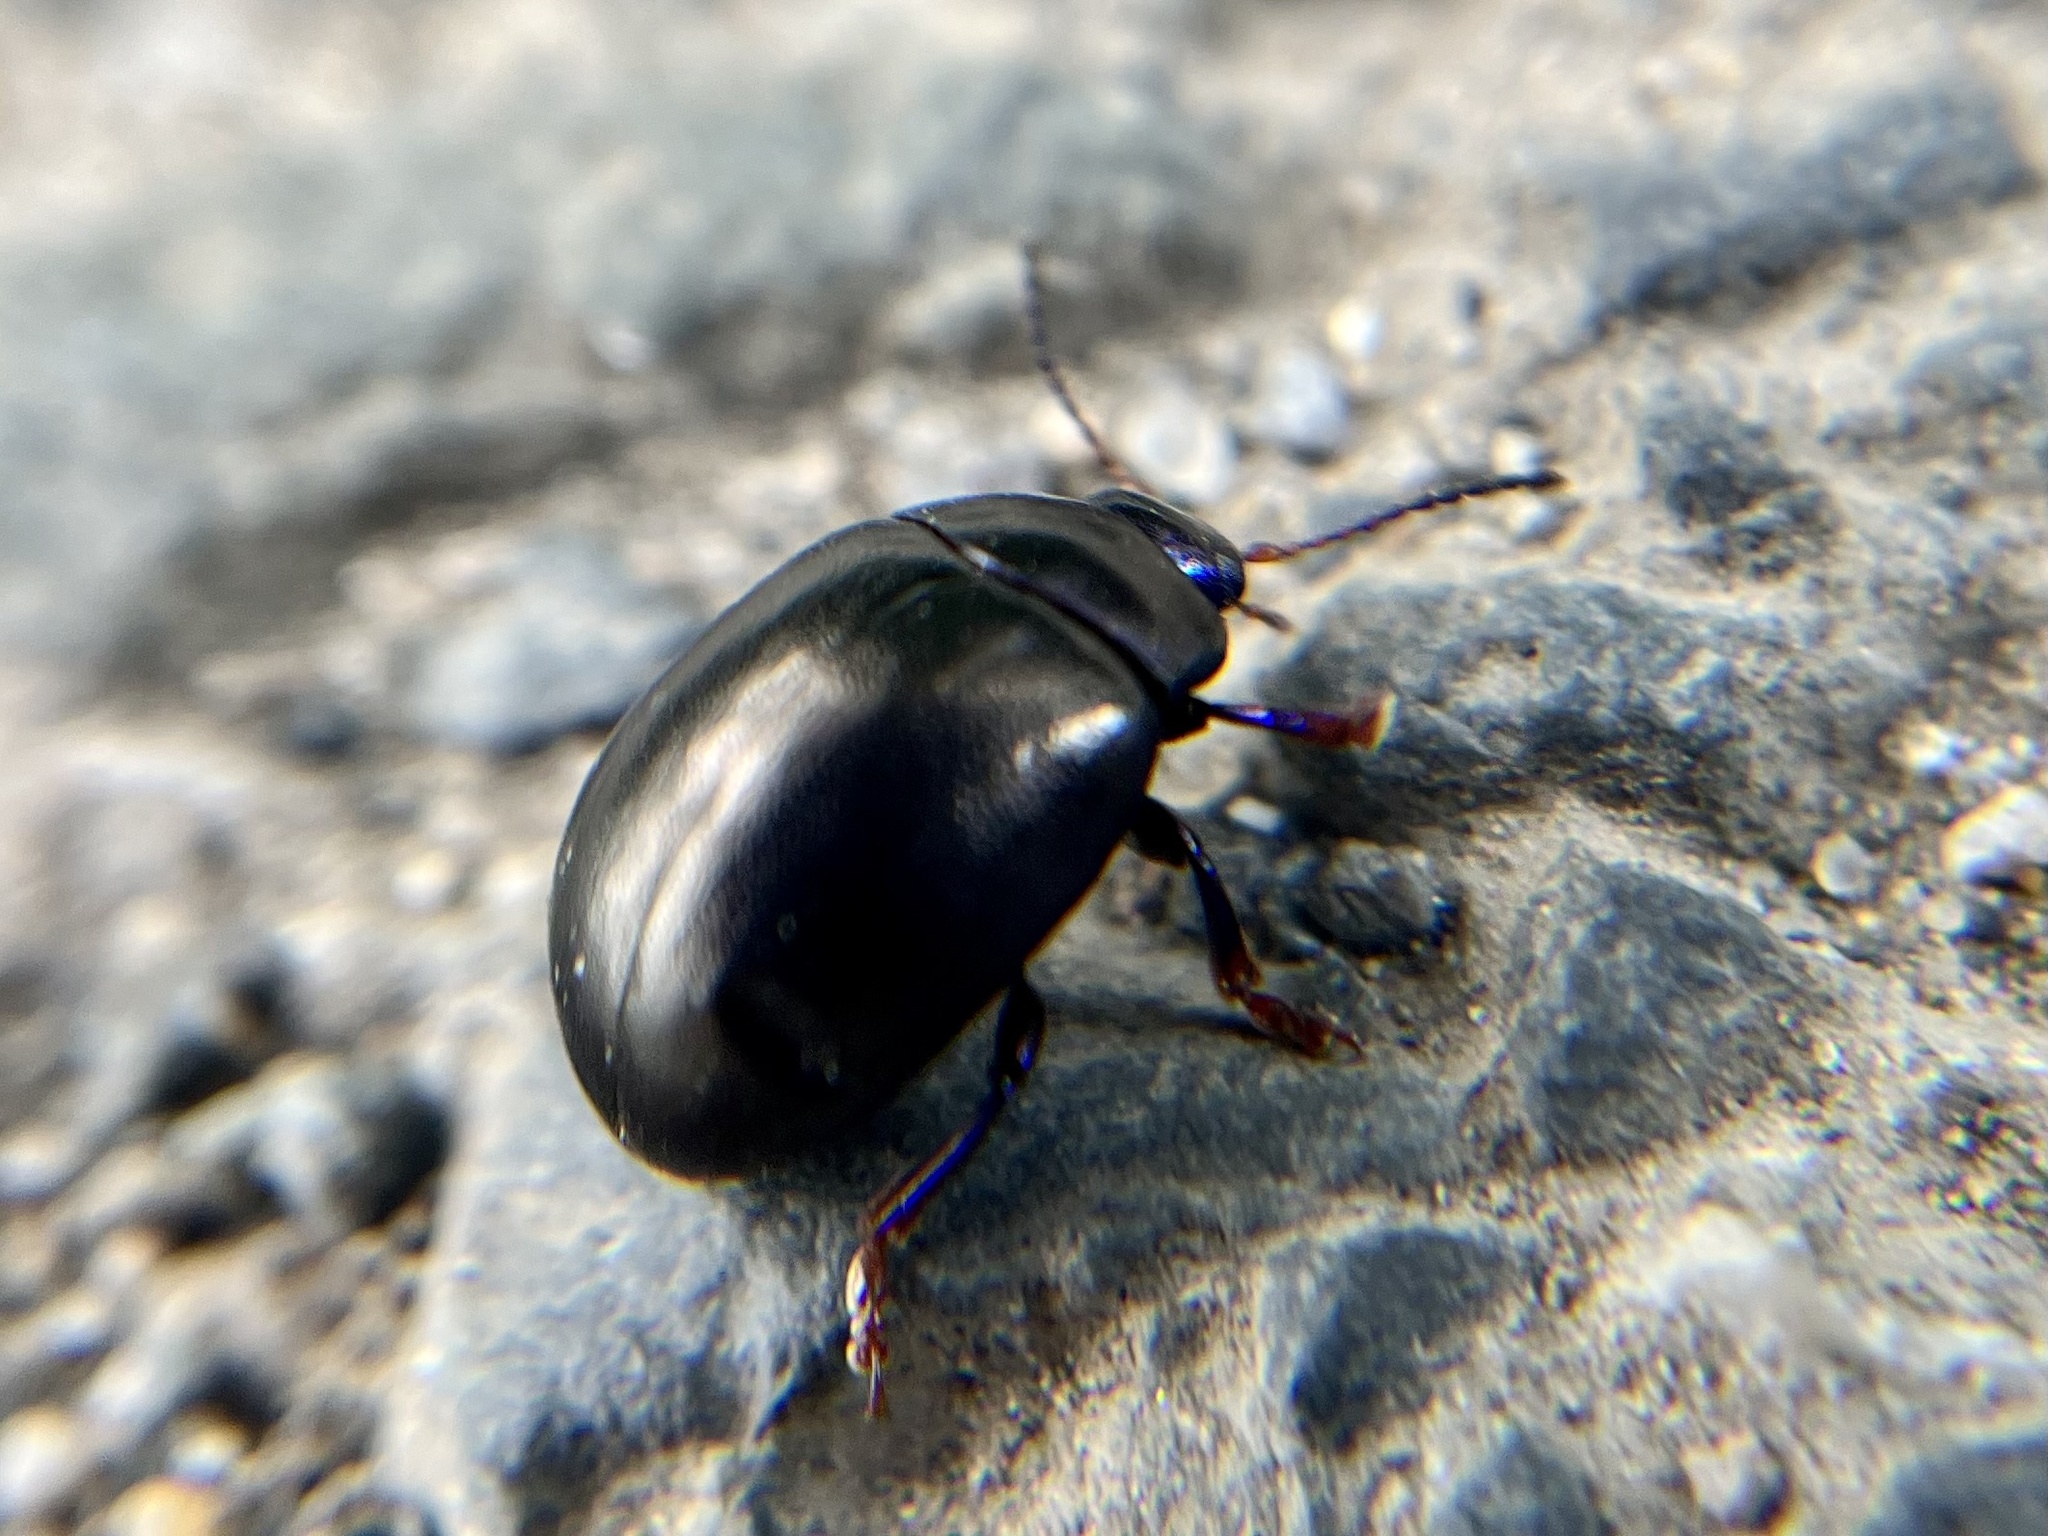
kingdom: Animalia
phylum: Arthropoda
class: Insecta
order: Coleoptera
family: Chrysomelidae
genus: Chrysolina
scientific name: Chrysolina sturmi
